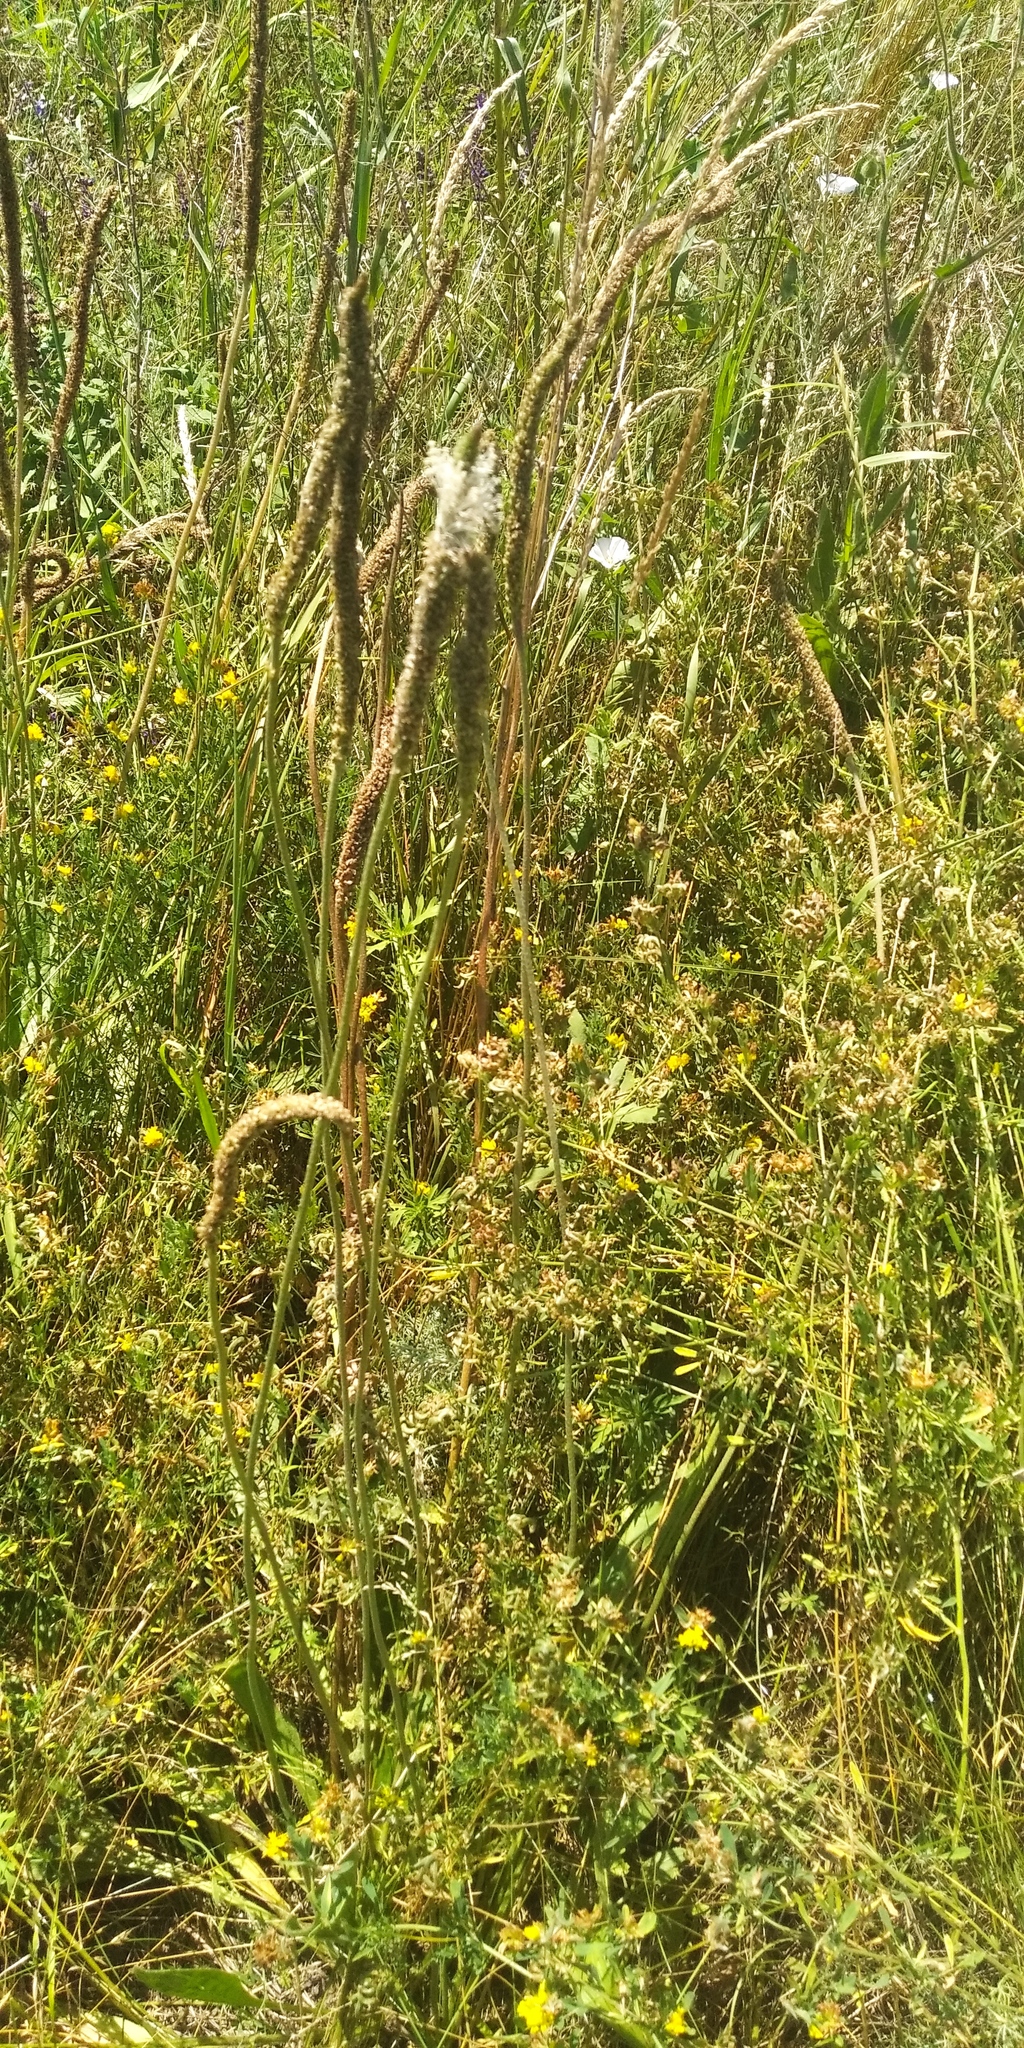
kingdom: Plantae
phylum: Tracheophyta
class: Magnoliopsida
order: Lamiales
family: Plantaginaceae
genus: Plantago
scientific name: Plantago urvillei
